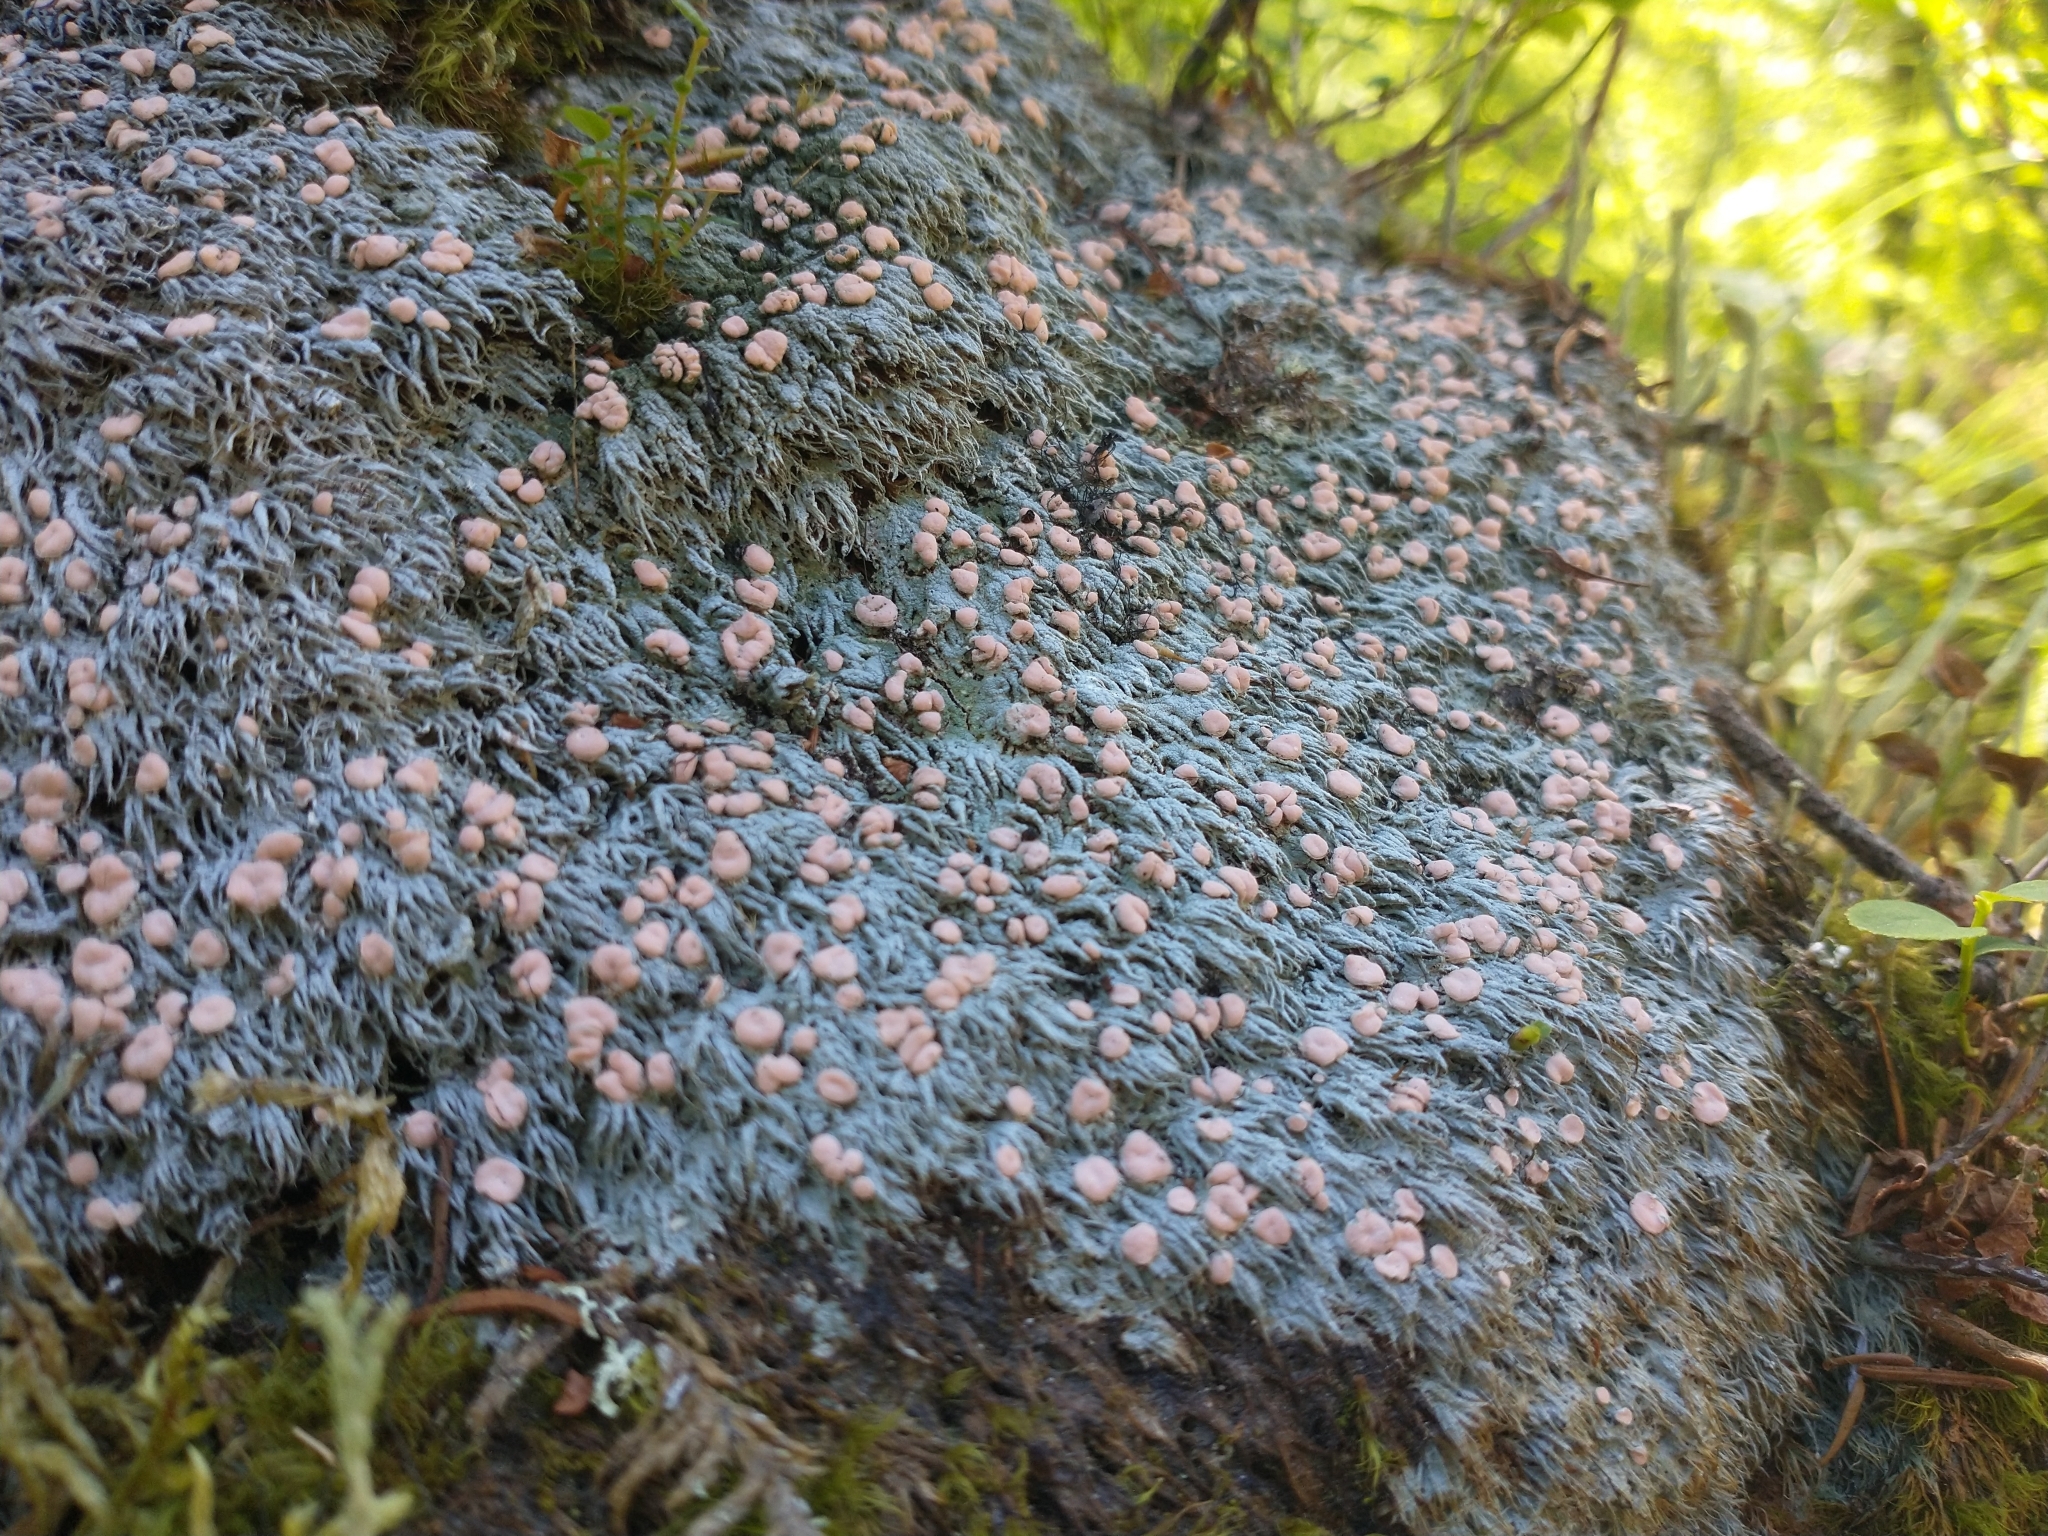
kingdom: Fungi
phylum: Ascomycota
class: Lecanoromycetes
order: Pertusariales
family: Icmadophilaceae
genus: Icmadophila
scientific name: Icmadophila ericetorum
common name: Candy lichen
